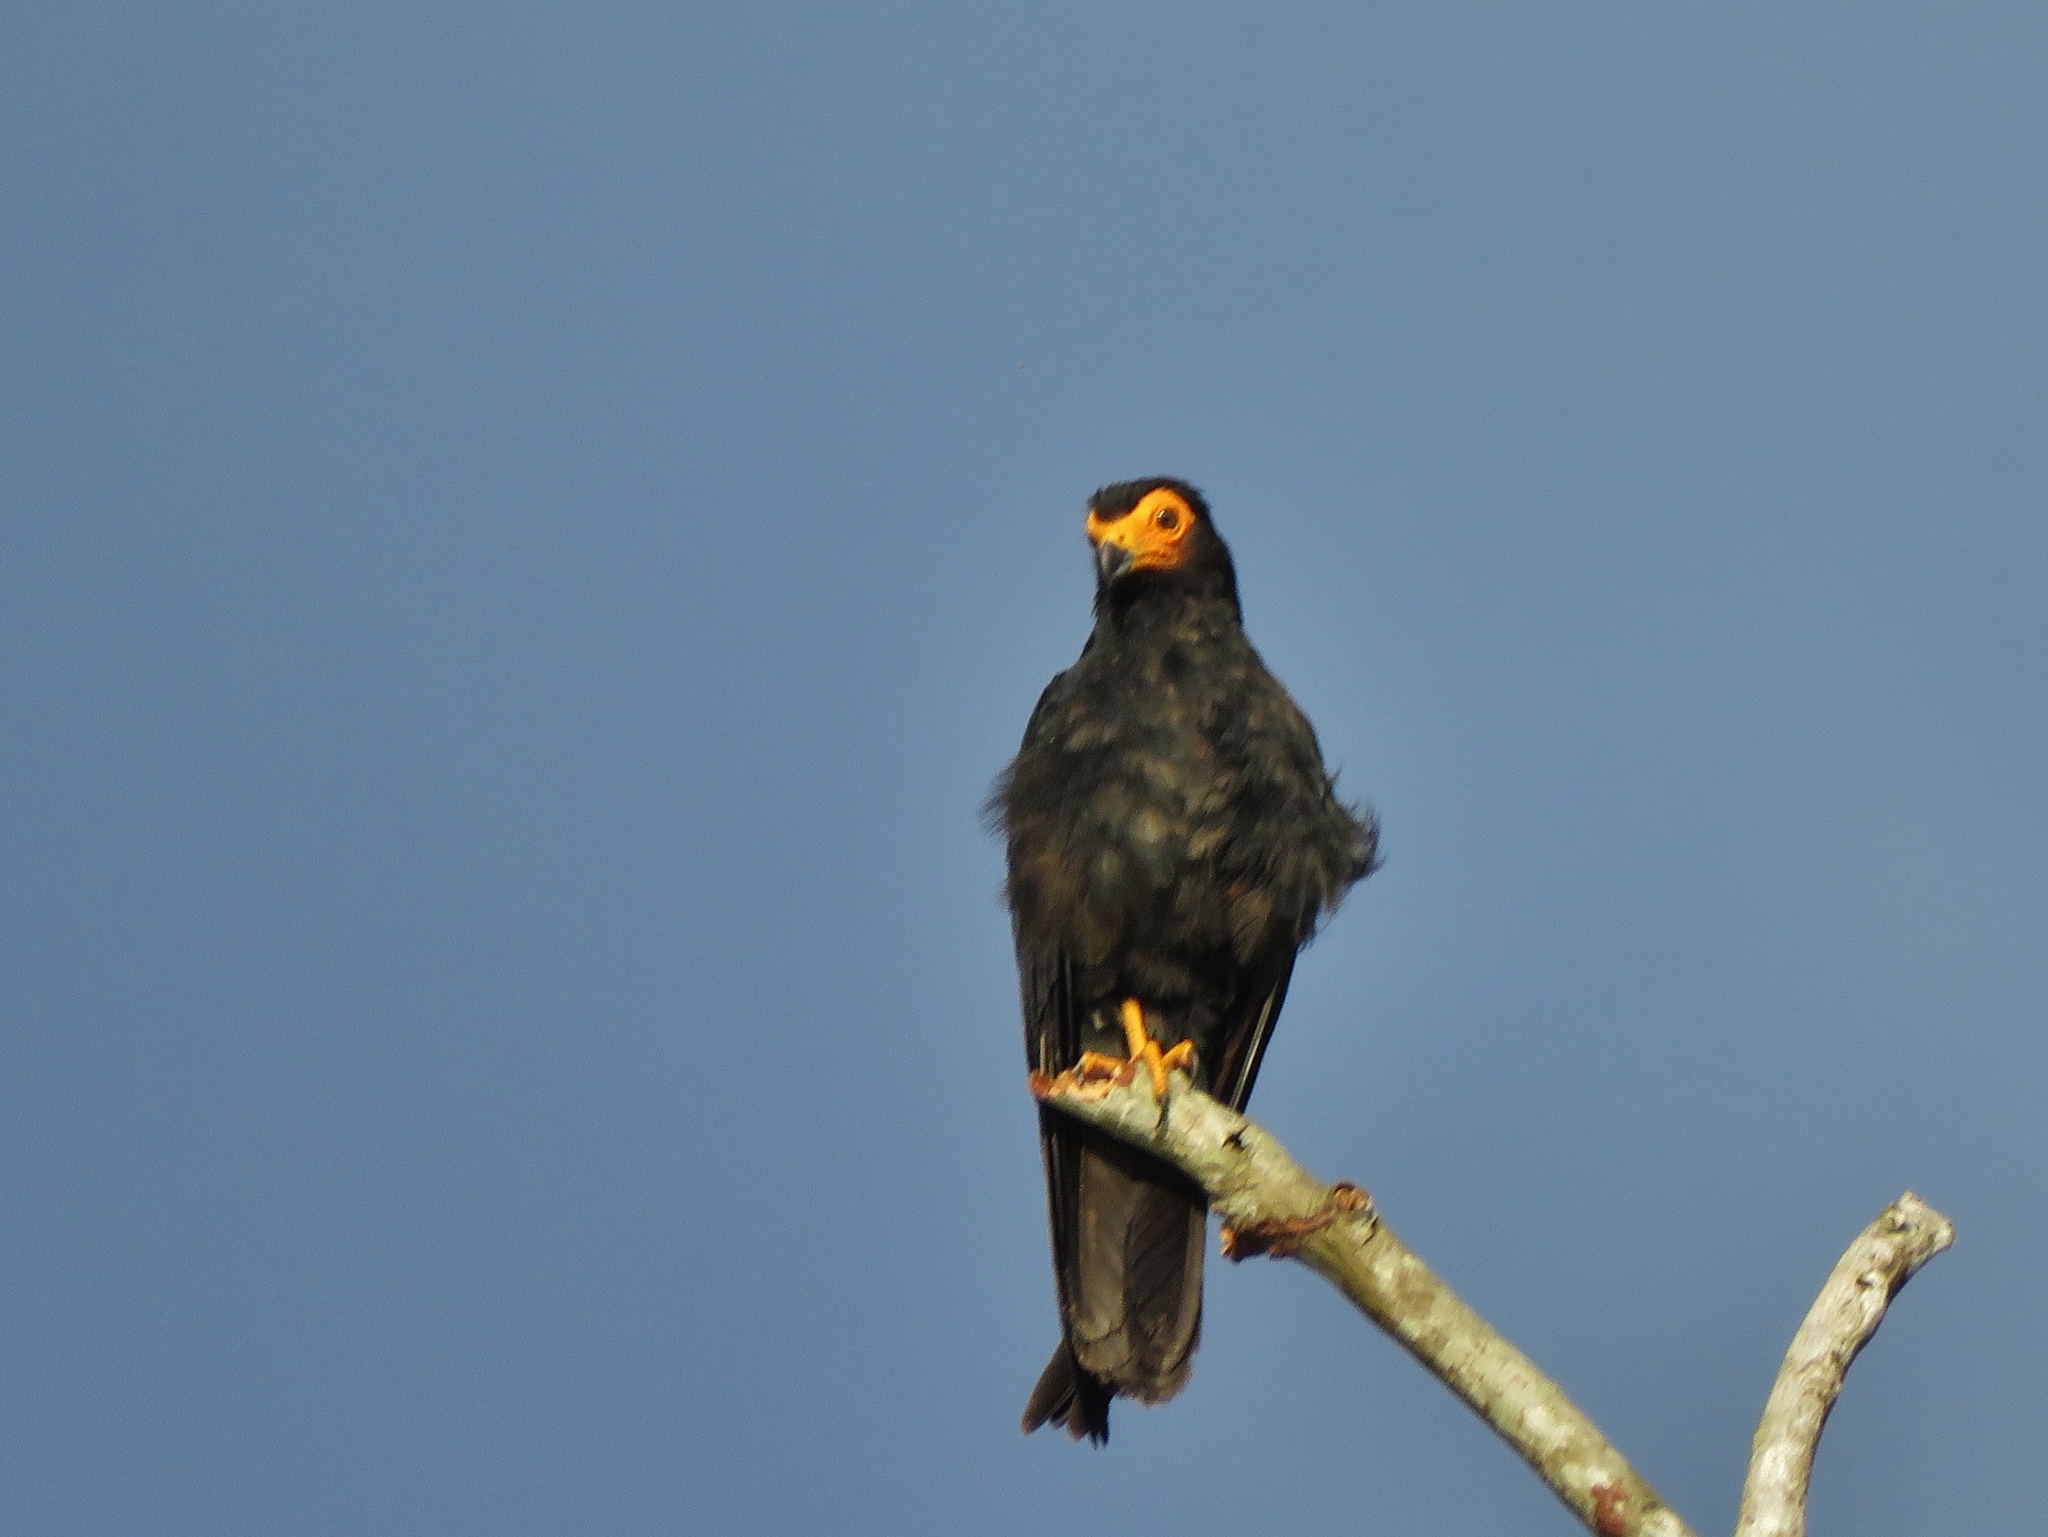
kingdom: Animalia
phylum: Chordata
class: Aves
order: Falconiformes
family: Falconidae
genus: Daptrius
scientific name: Daptrius ater
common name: Black caracara
